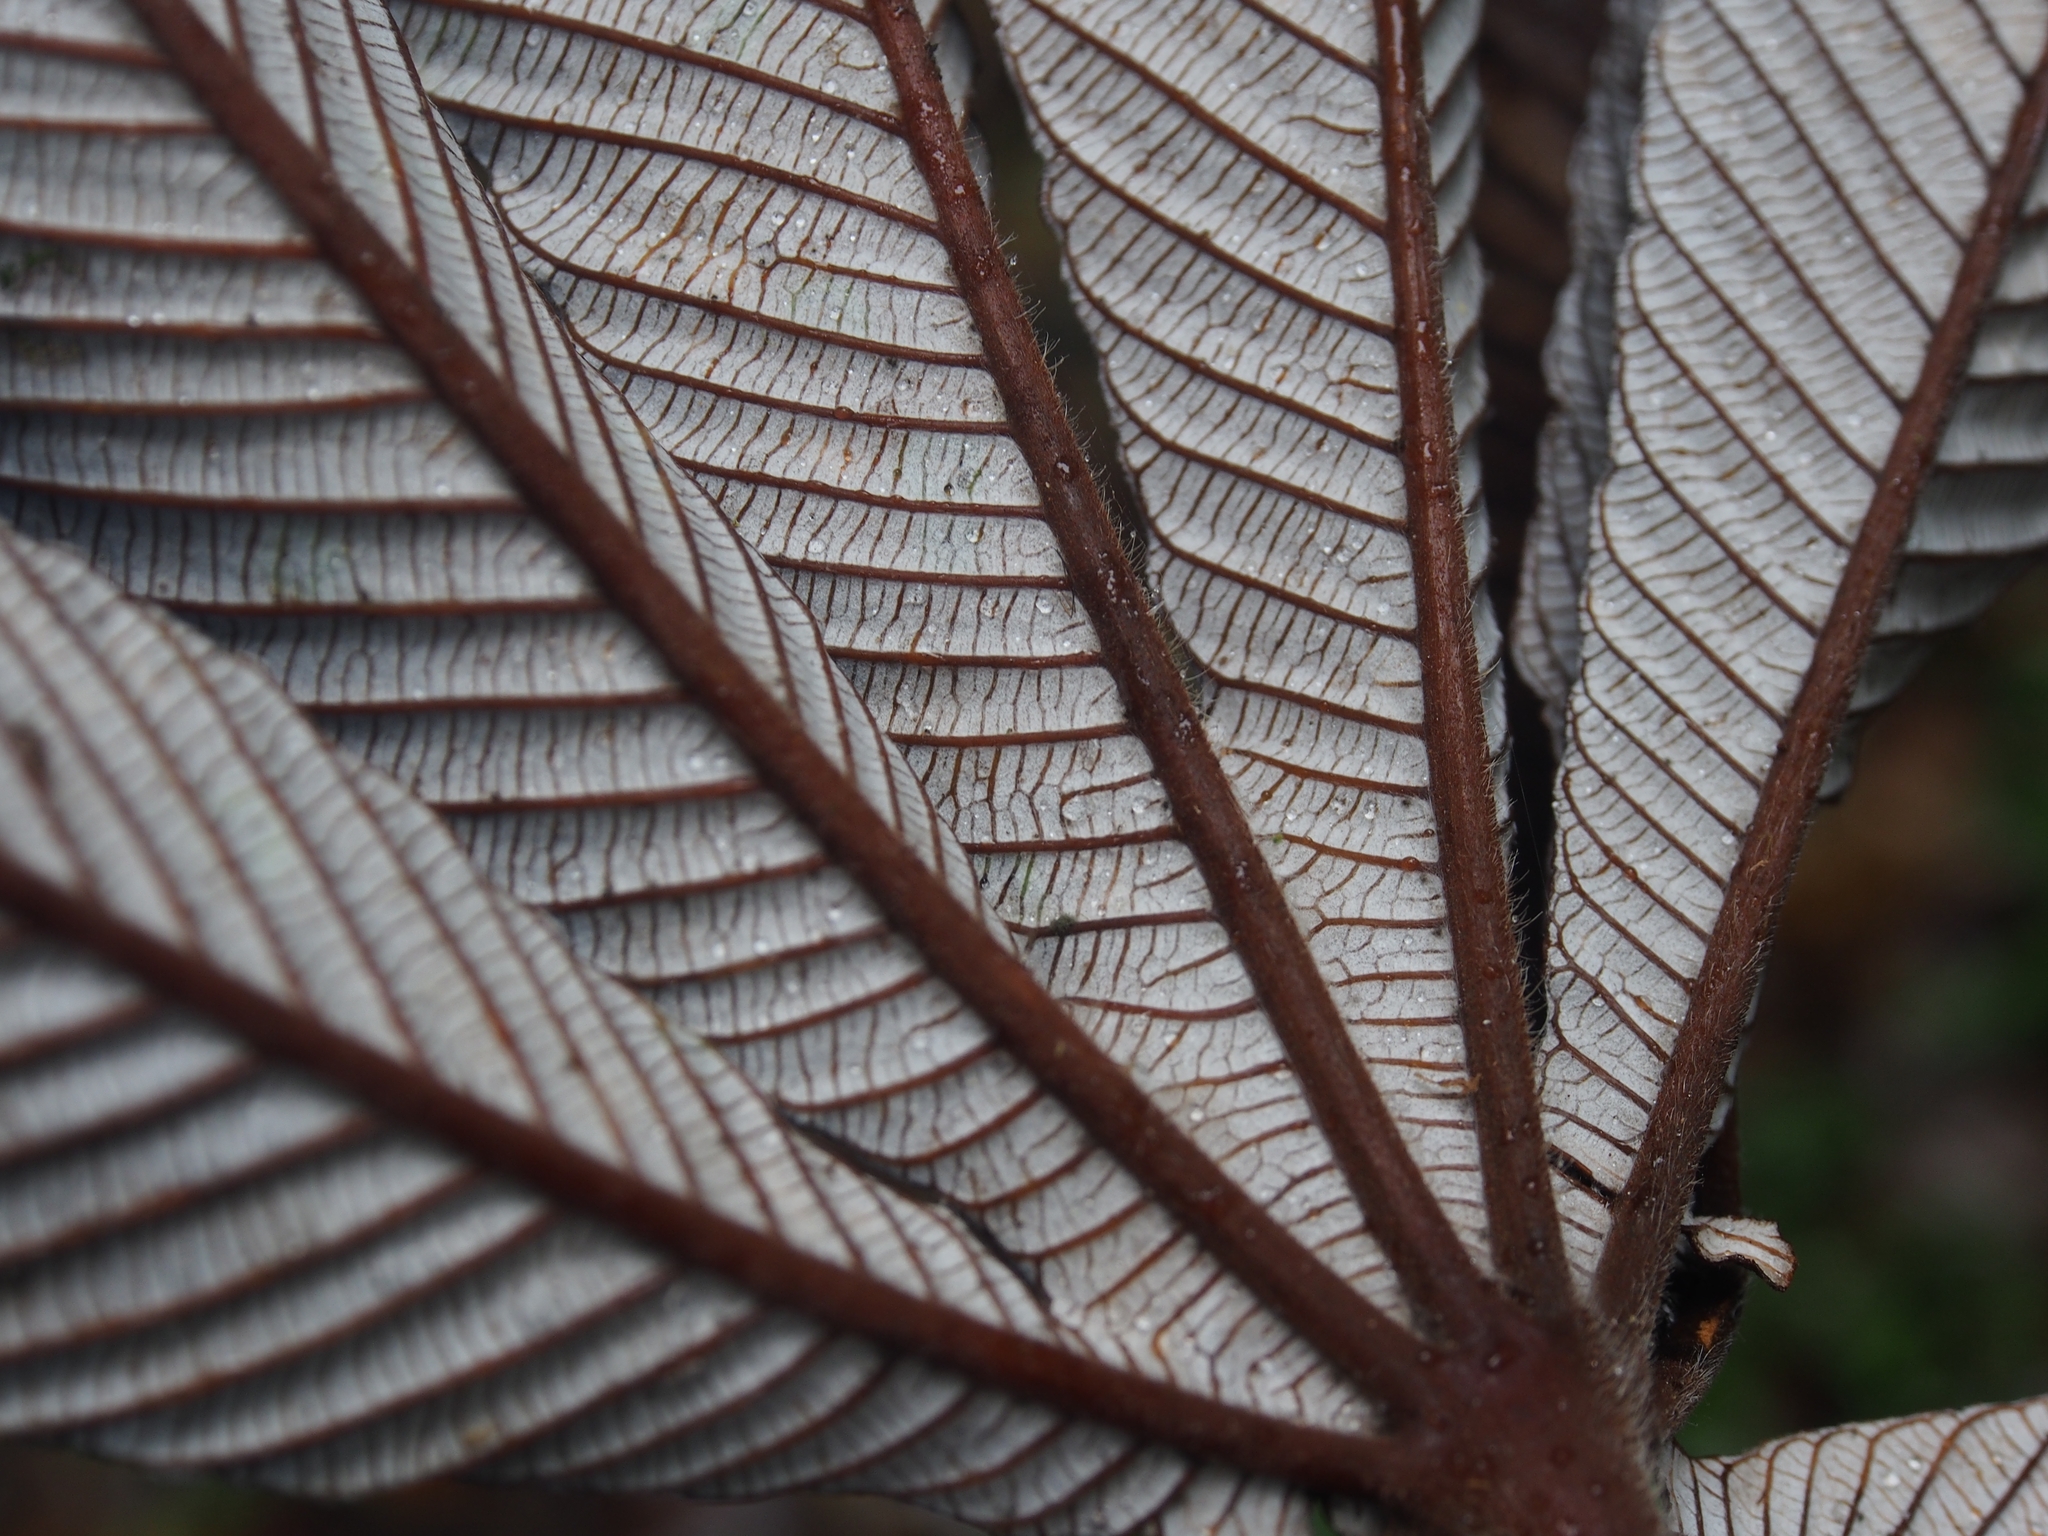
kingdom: Plantae
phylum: Tracheophyta
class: Magnoliopsida
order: Rosales
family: Urticaceae
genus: Cecropia
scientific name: Cecropia angustifolia
